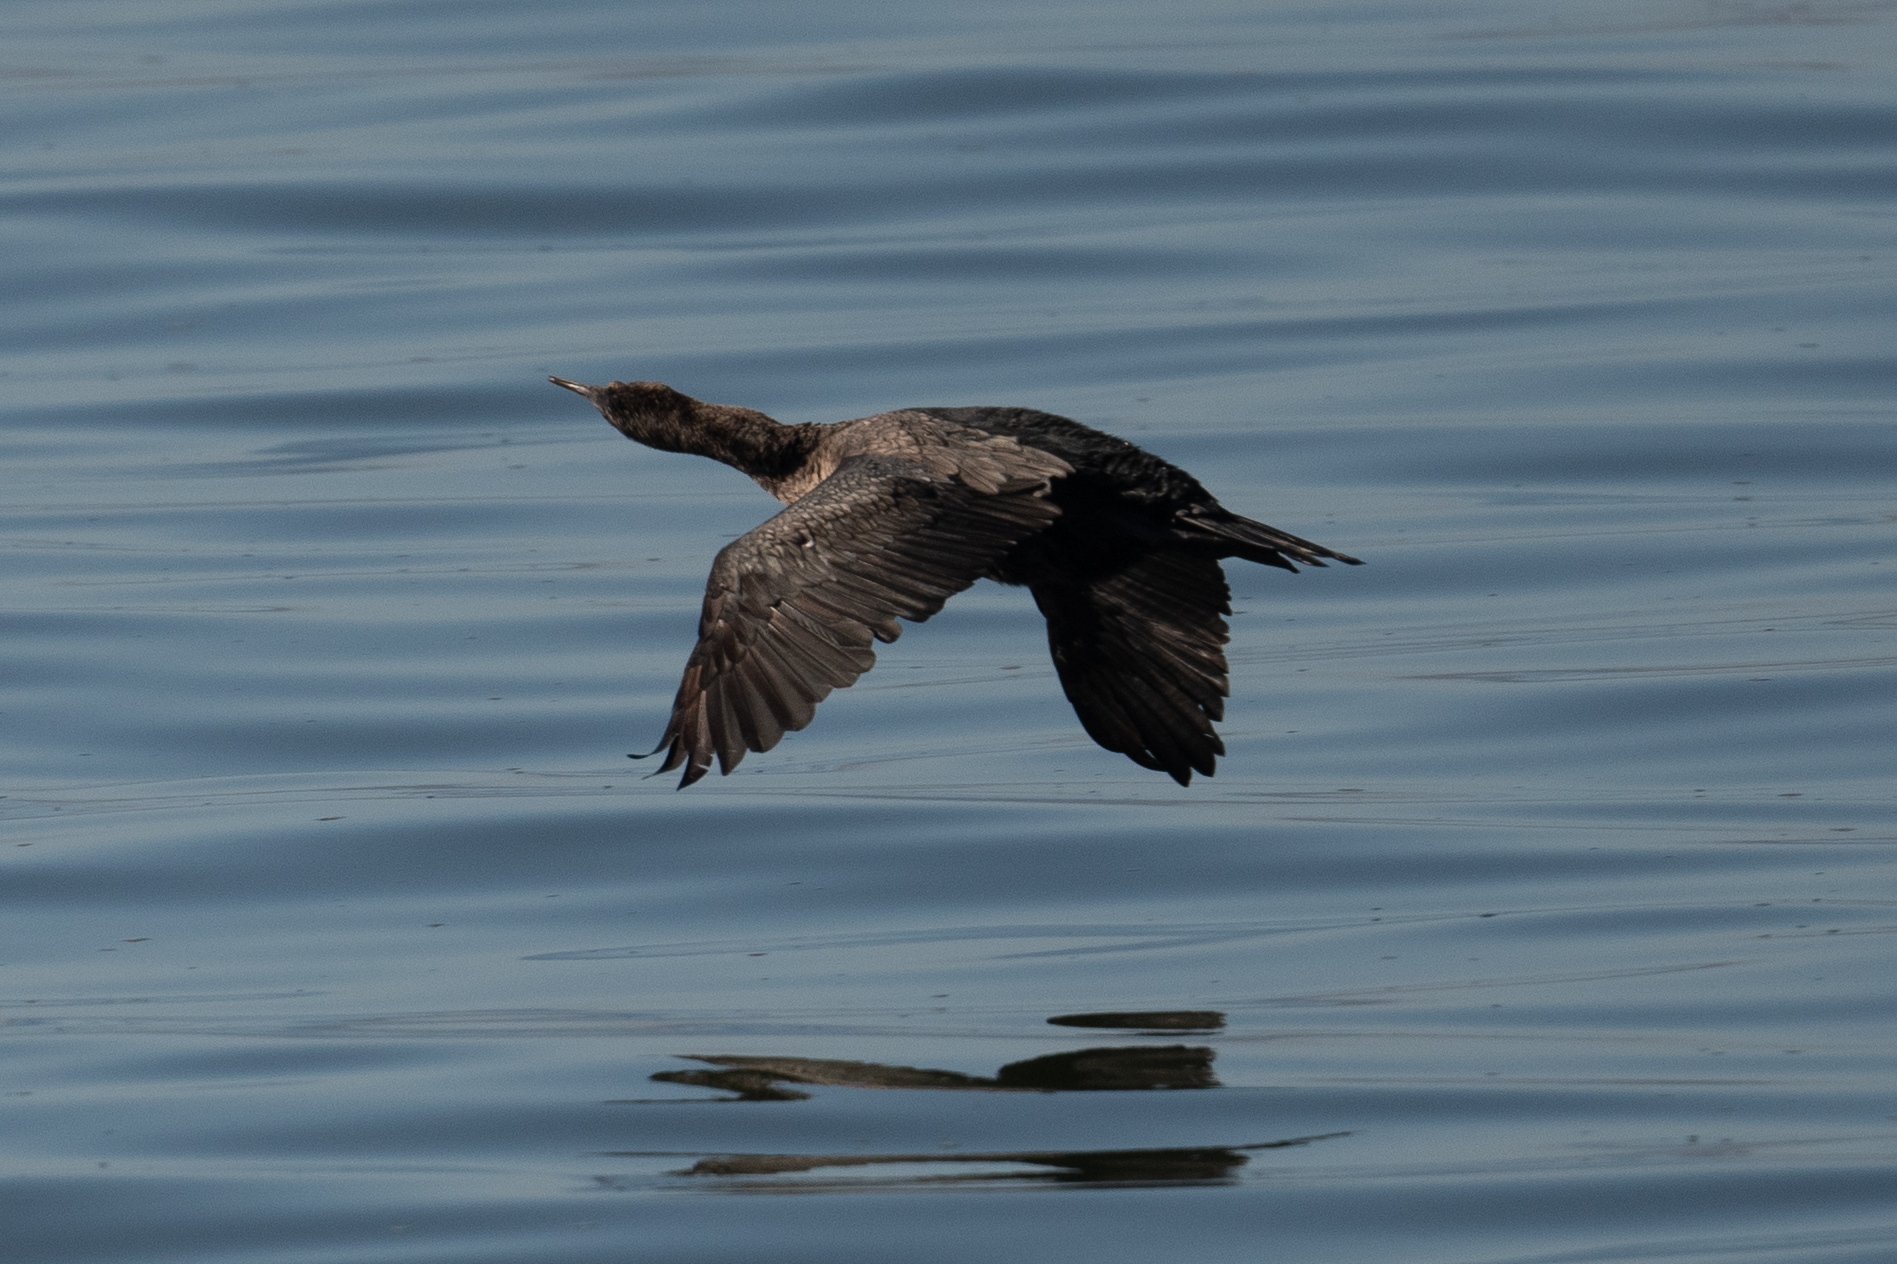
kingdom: Animalia
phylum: Chordata
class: Aves
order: Suliformes
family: Phalacrocoracidae
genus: Phalacrocorax
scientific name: Phalacrocorax auritus
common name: Double-crested cormorant
